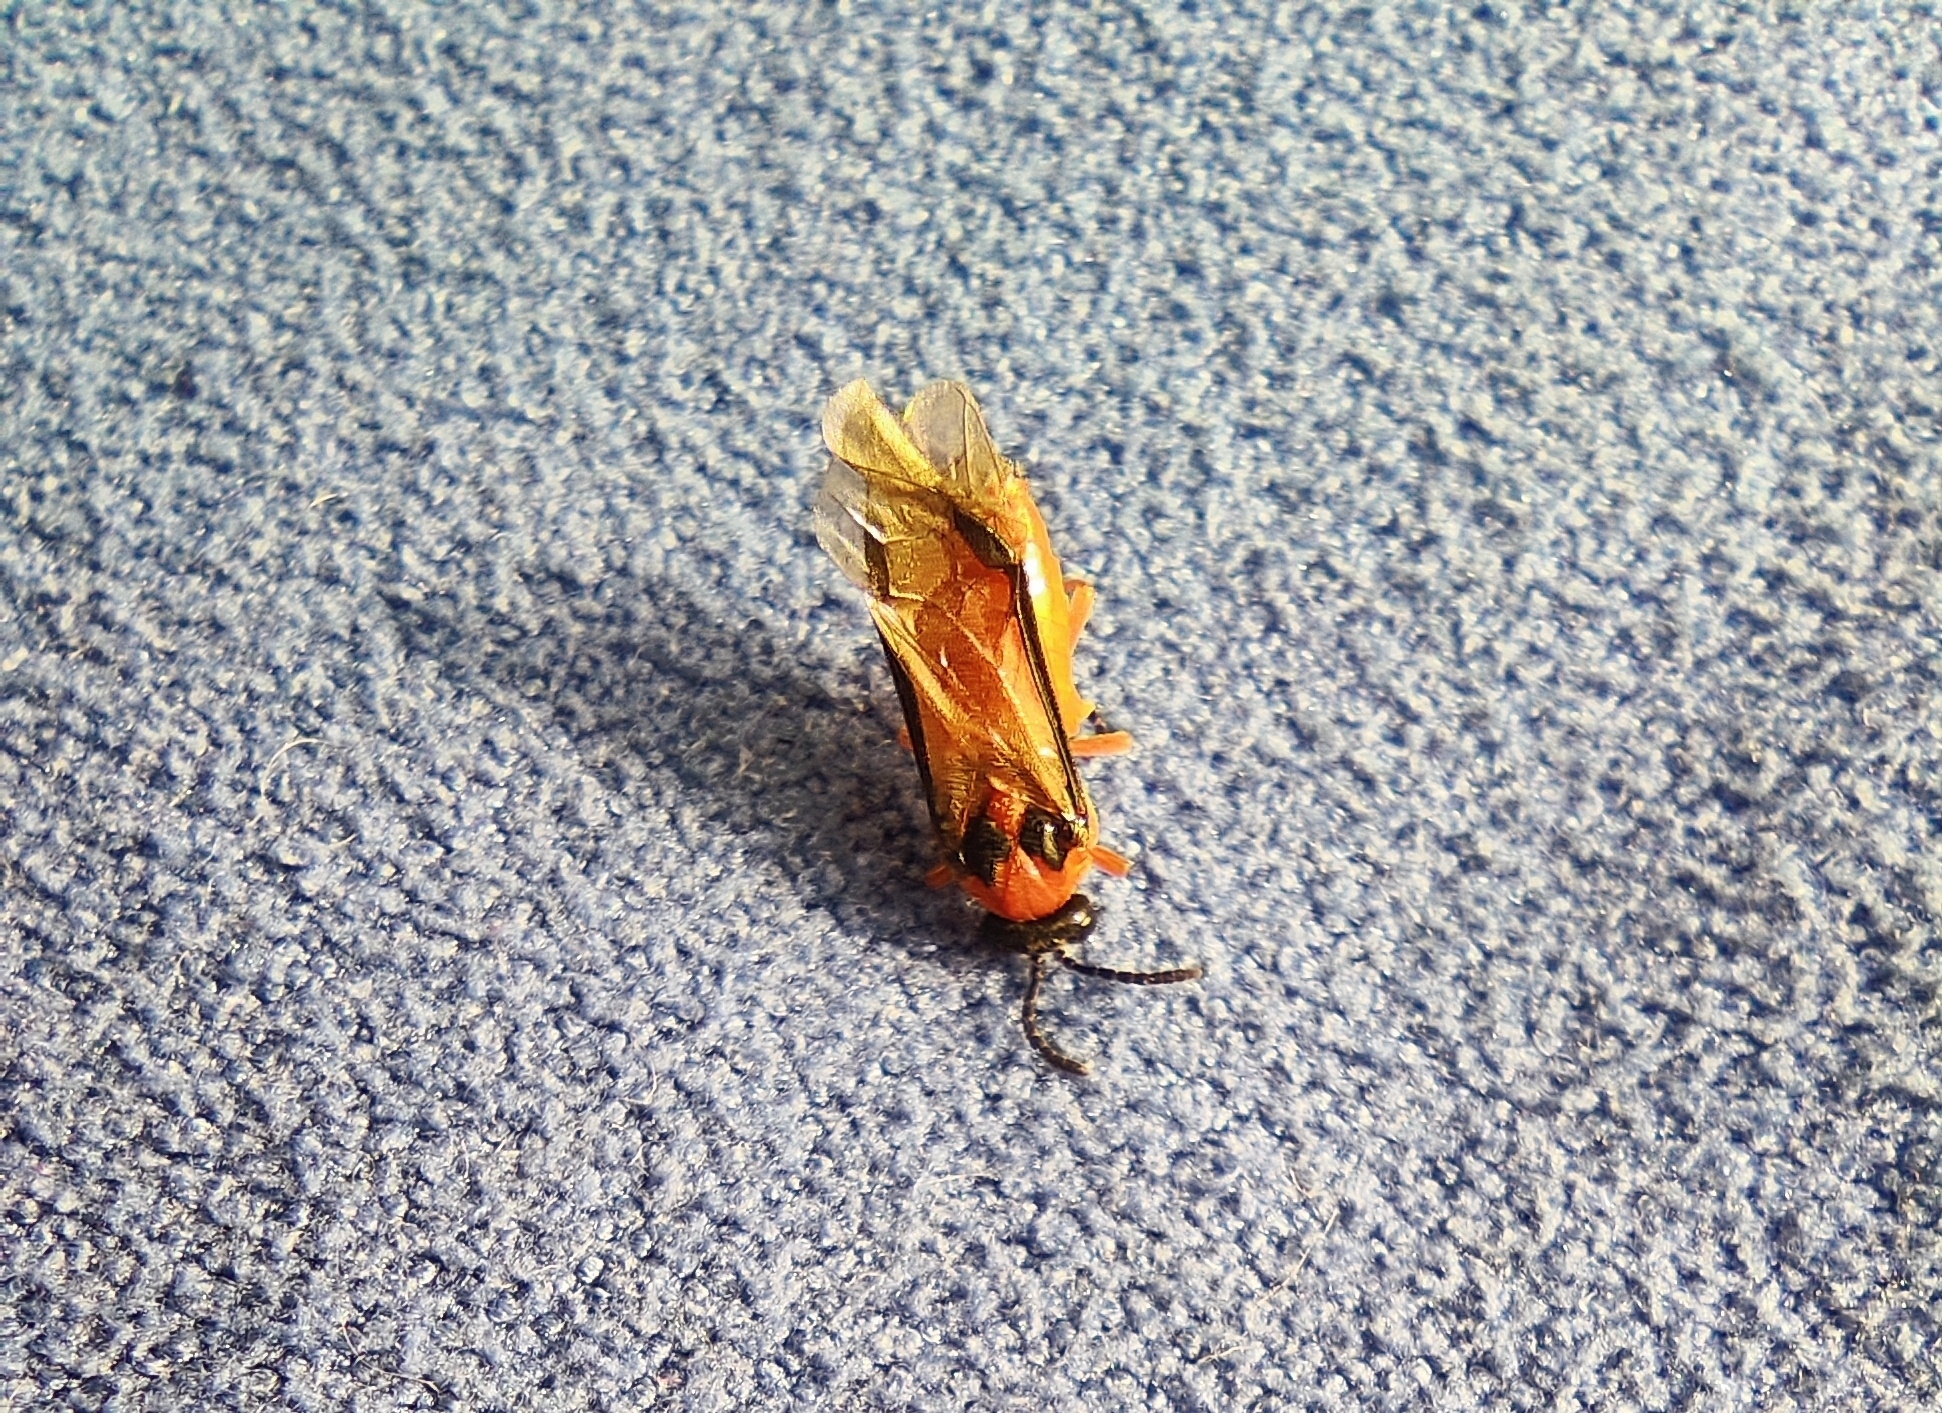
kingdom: Animalia
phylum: Arthropoda
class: Insecta
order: Hymenoptera
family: Tenthredinidae
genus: Athalia
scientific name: Athalia rosae
